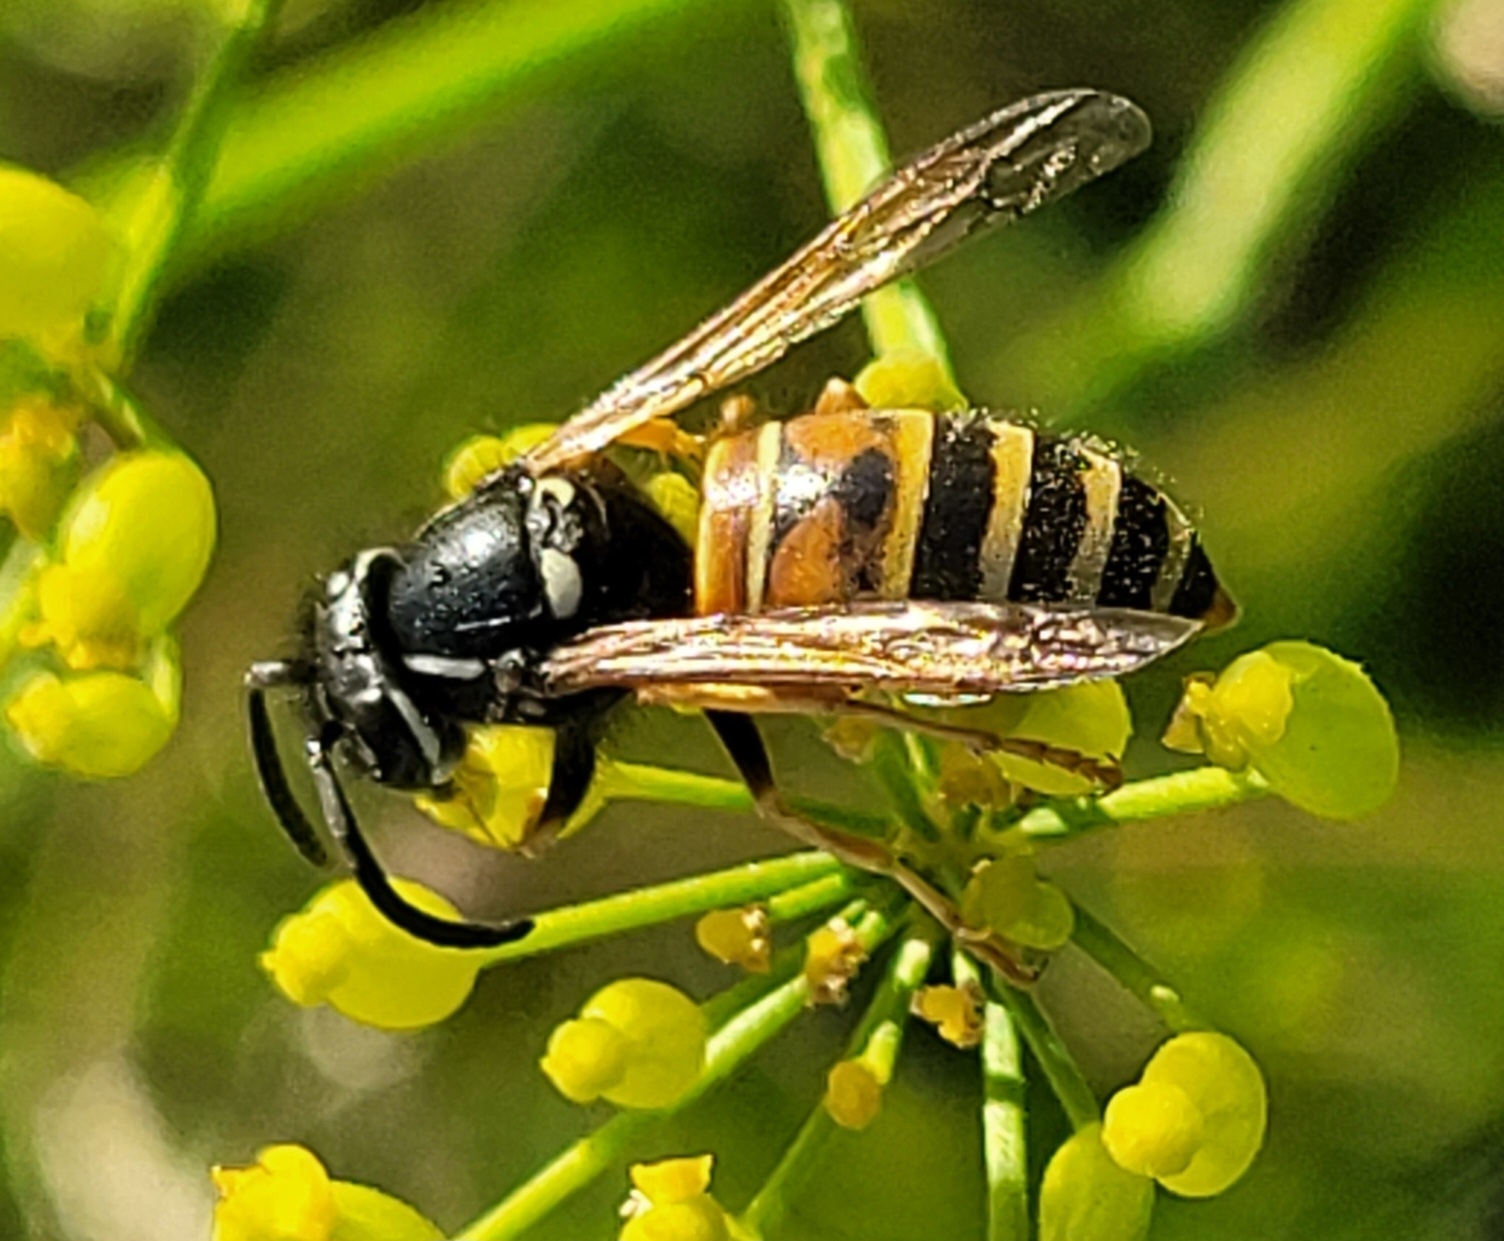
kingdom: Animalia
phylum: Arthropoda
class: Insecta
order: Hymenoptera
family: Vespidae
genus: Vespula
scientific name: Vespula rufa
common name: Red wasp
